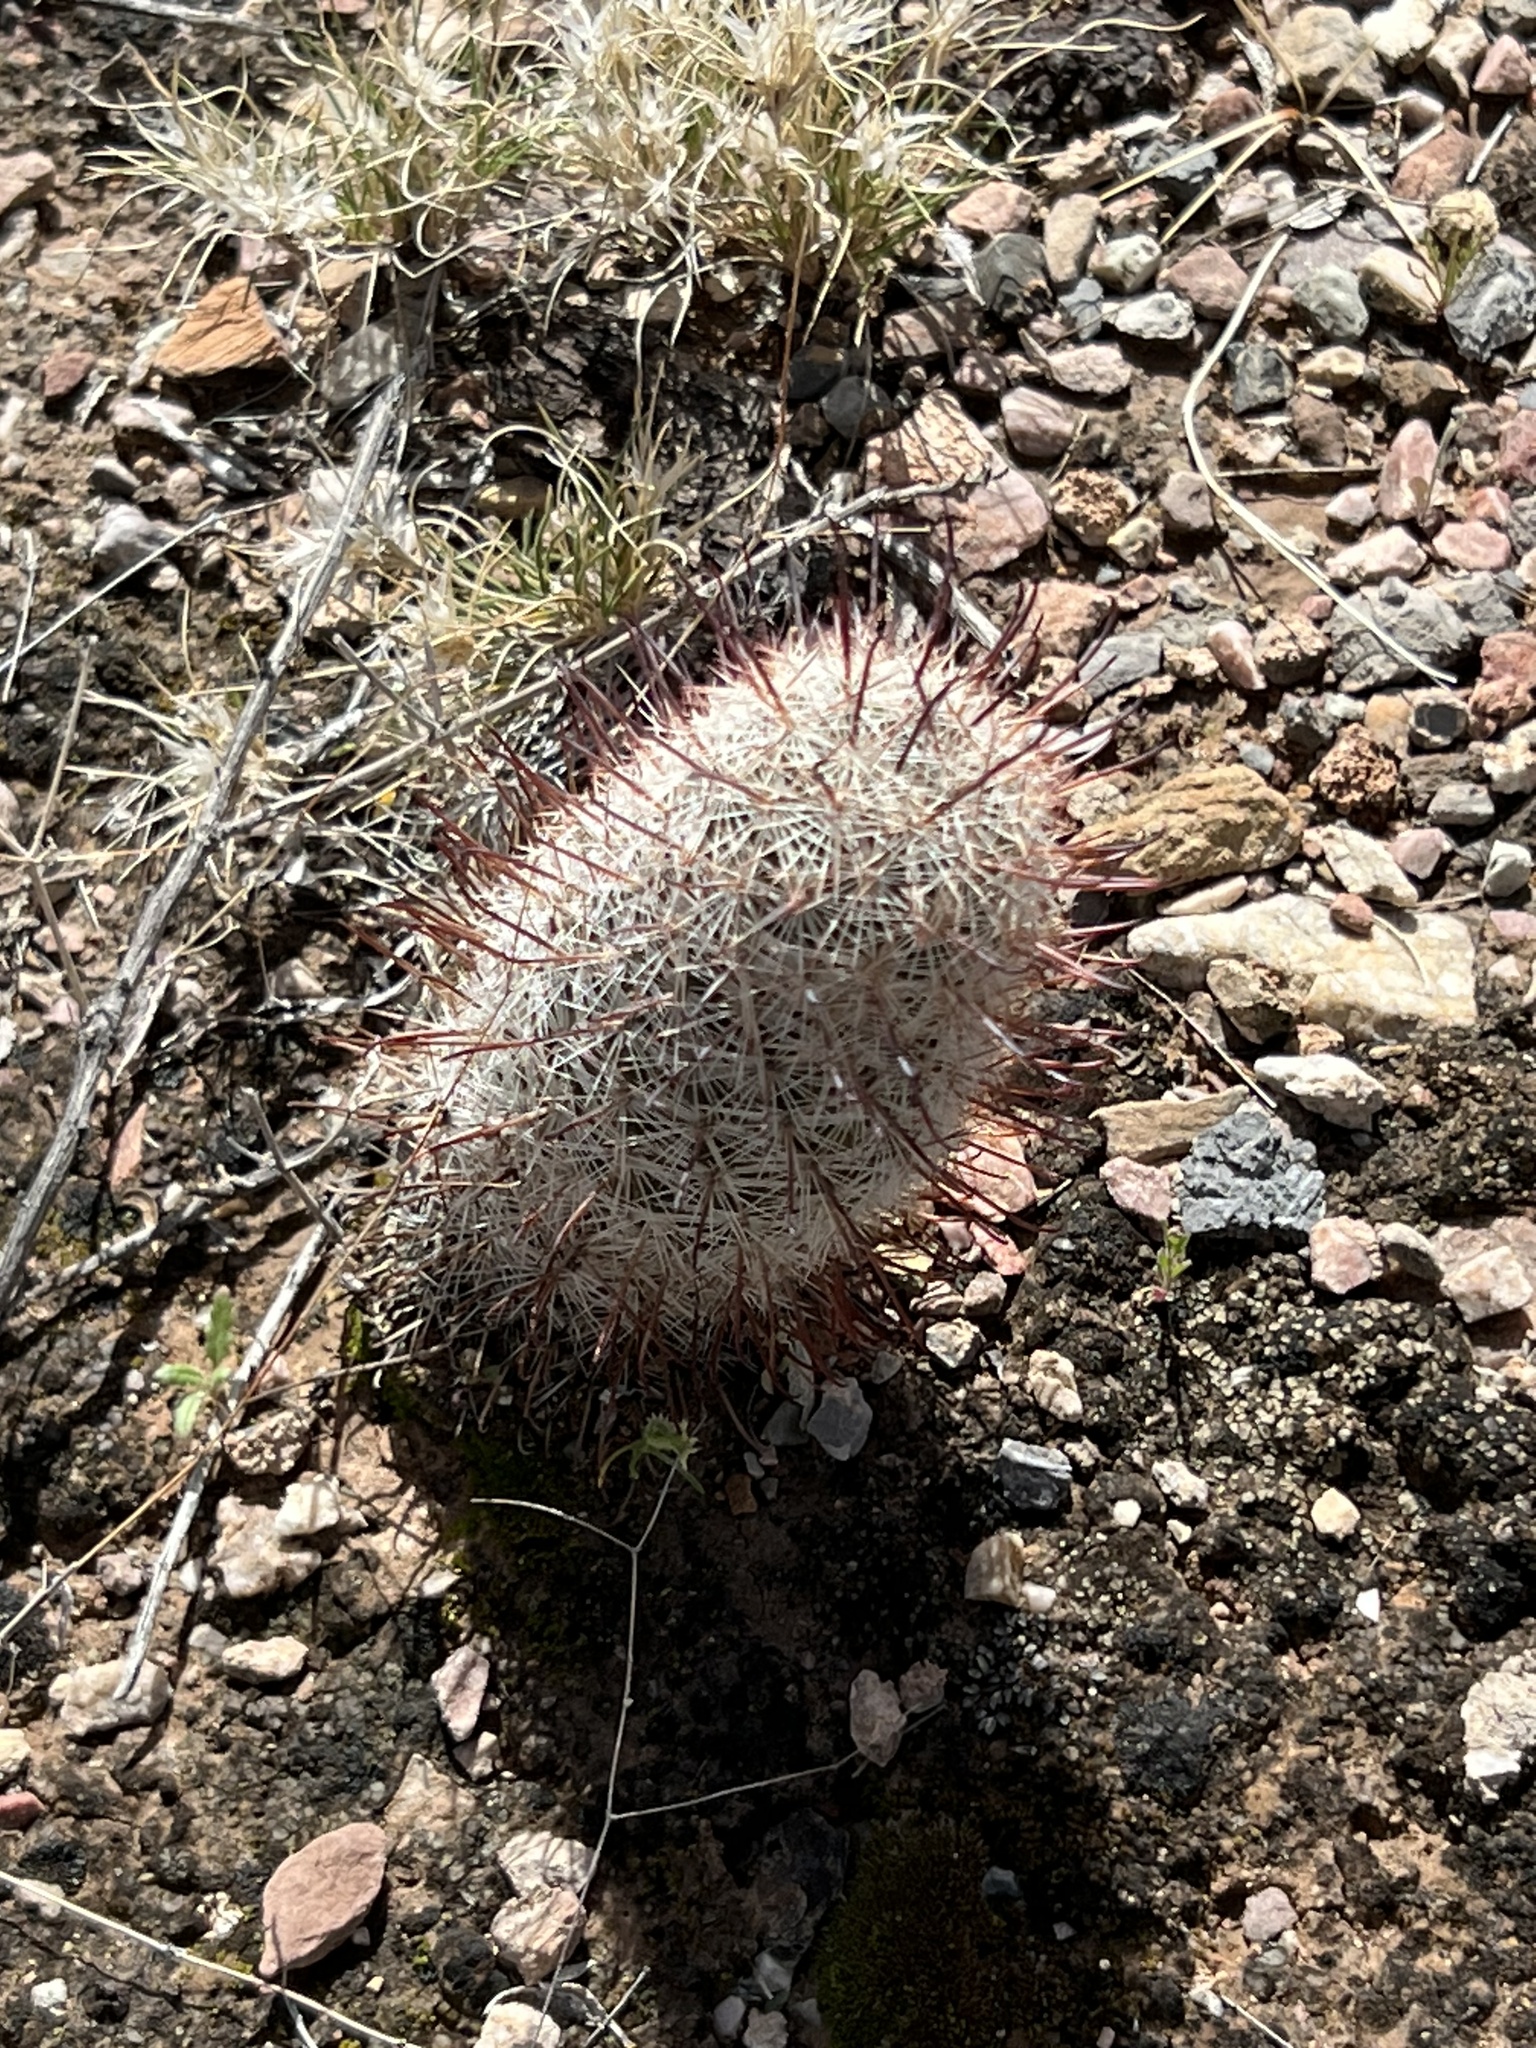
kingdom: Plantae
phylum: Tracheophyta
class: Magnoliopsida
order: Caryophyllales
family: Cactaceae
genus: Cochemiea
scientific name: Cochemiea grahamii
